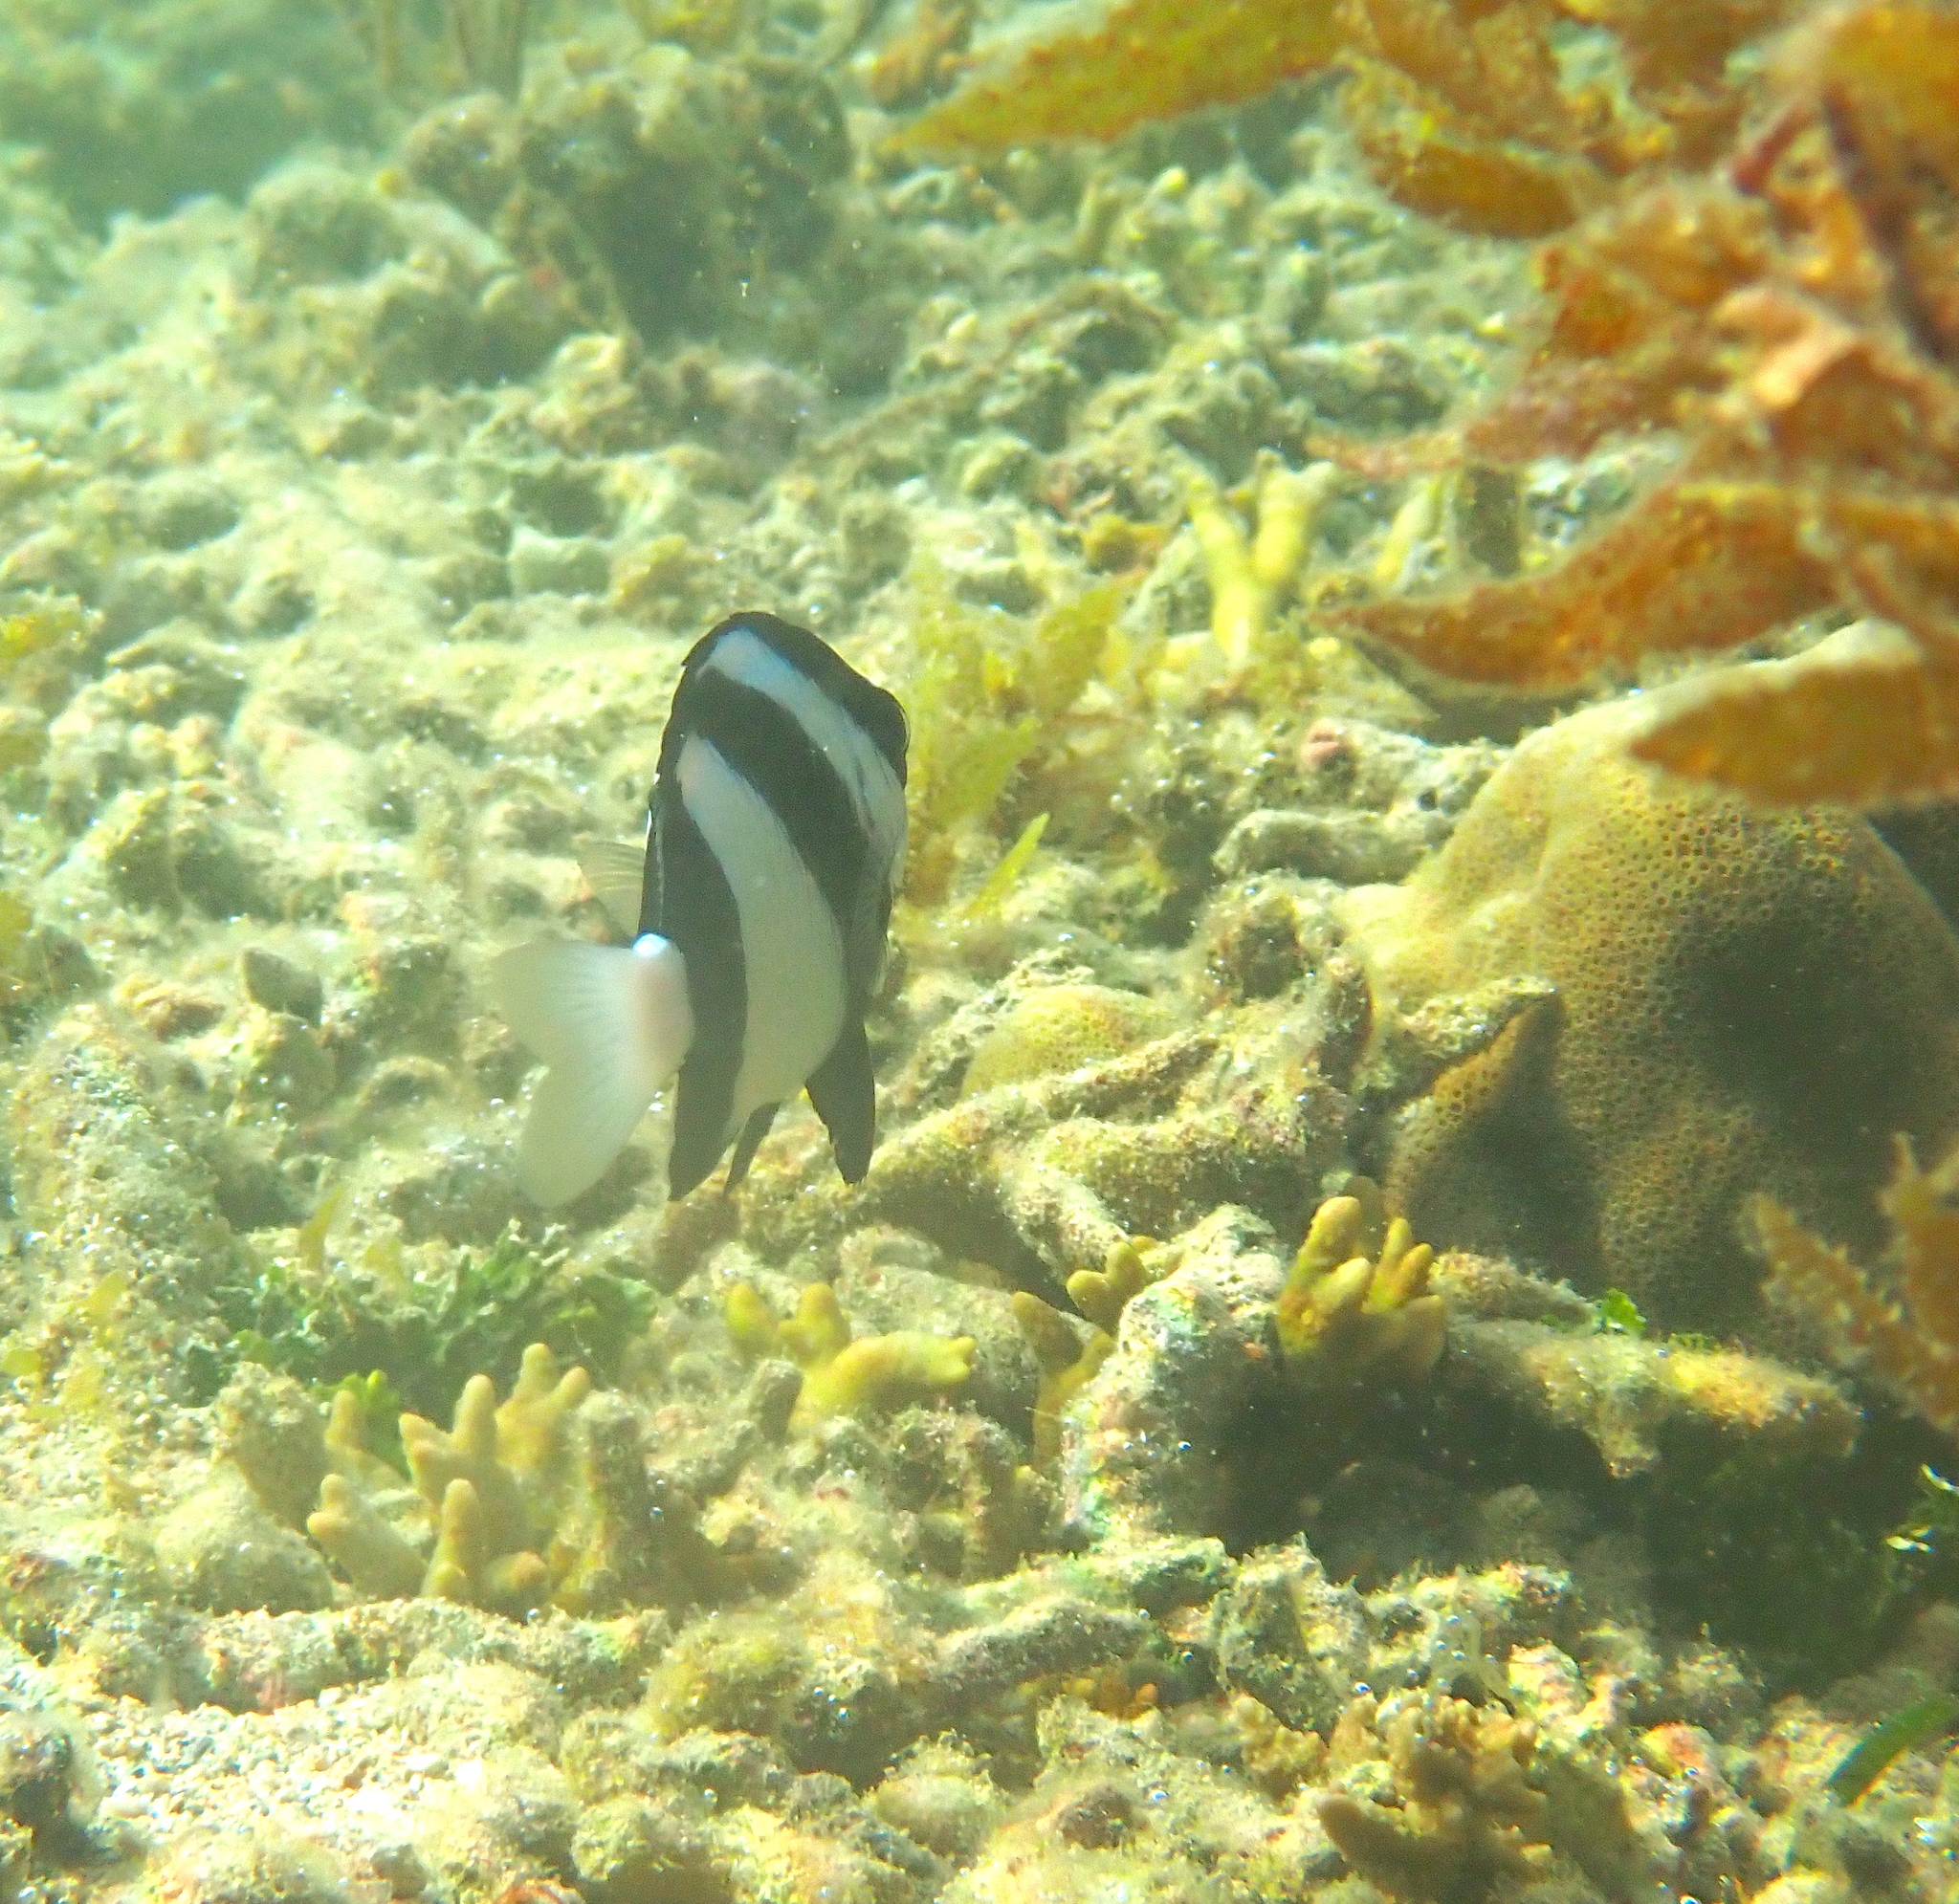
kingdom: Animalia
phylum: Chordata
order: Perciformes
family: Pomacentridae
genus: Dascyllus
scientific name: Dascyllus aruanus
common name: Humbug dascyllus
